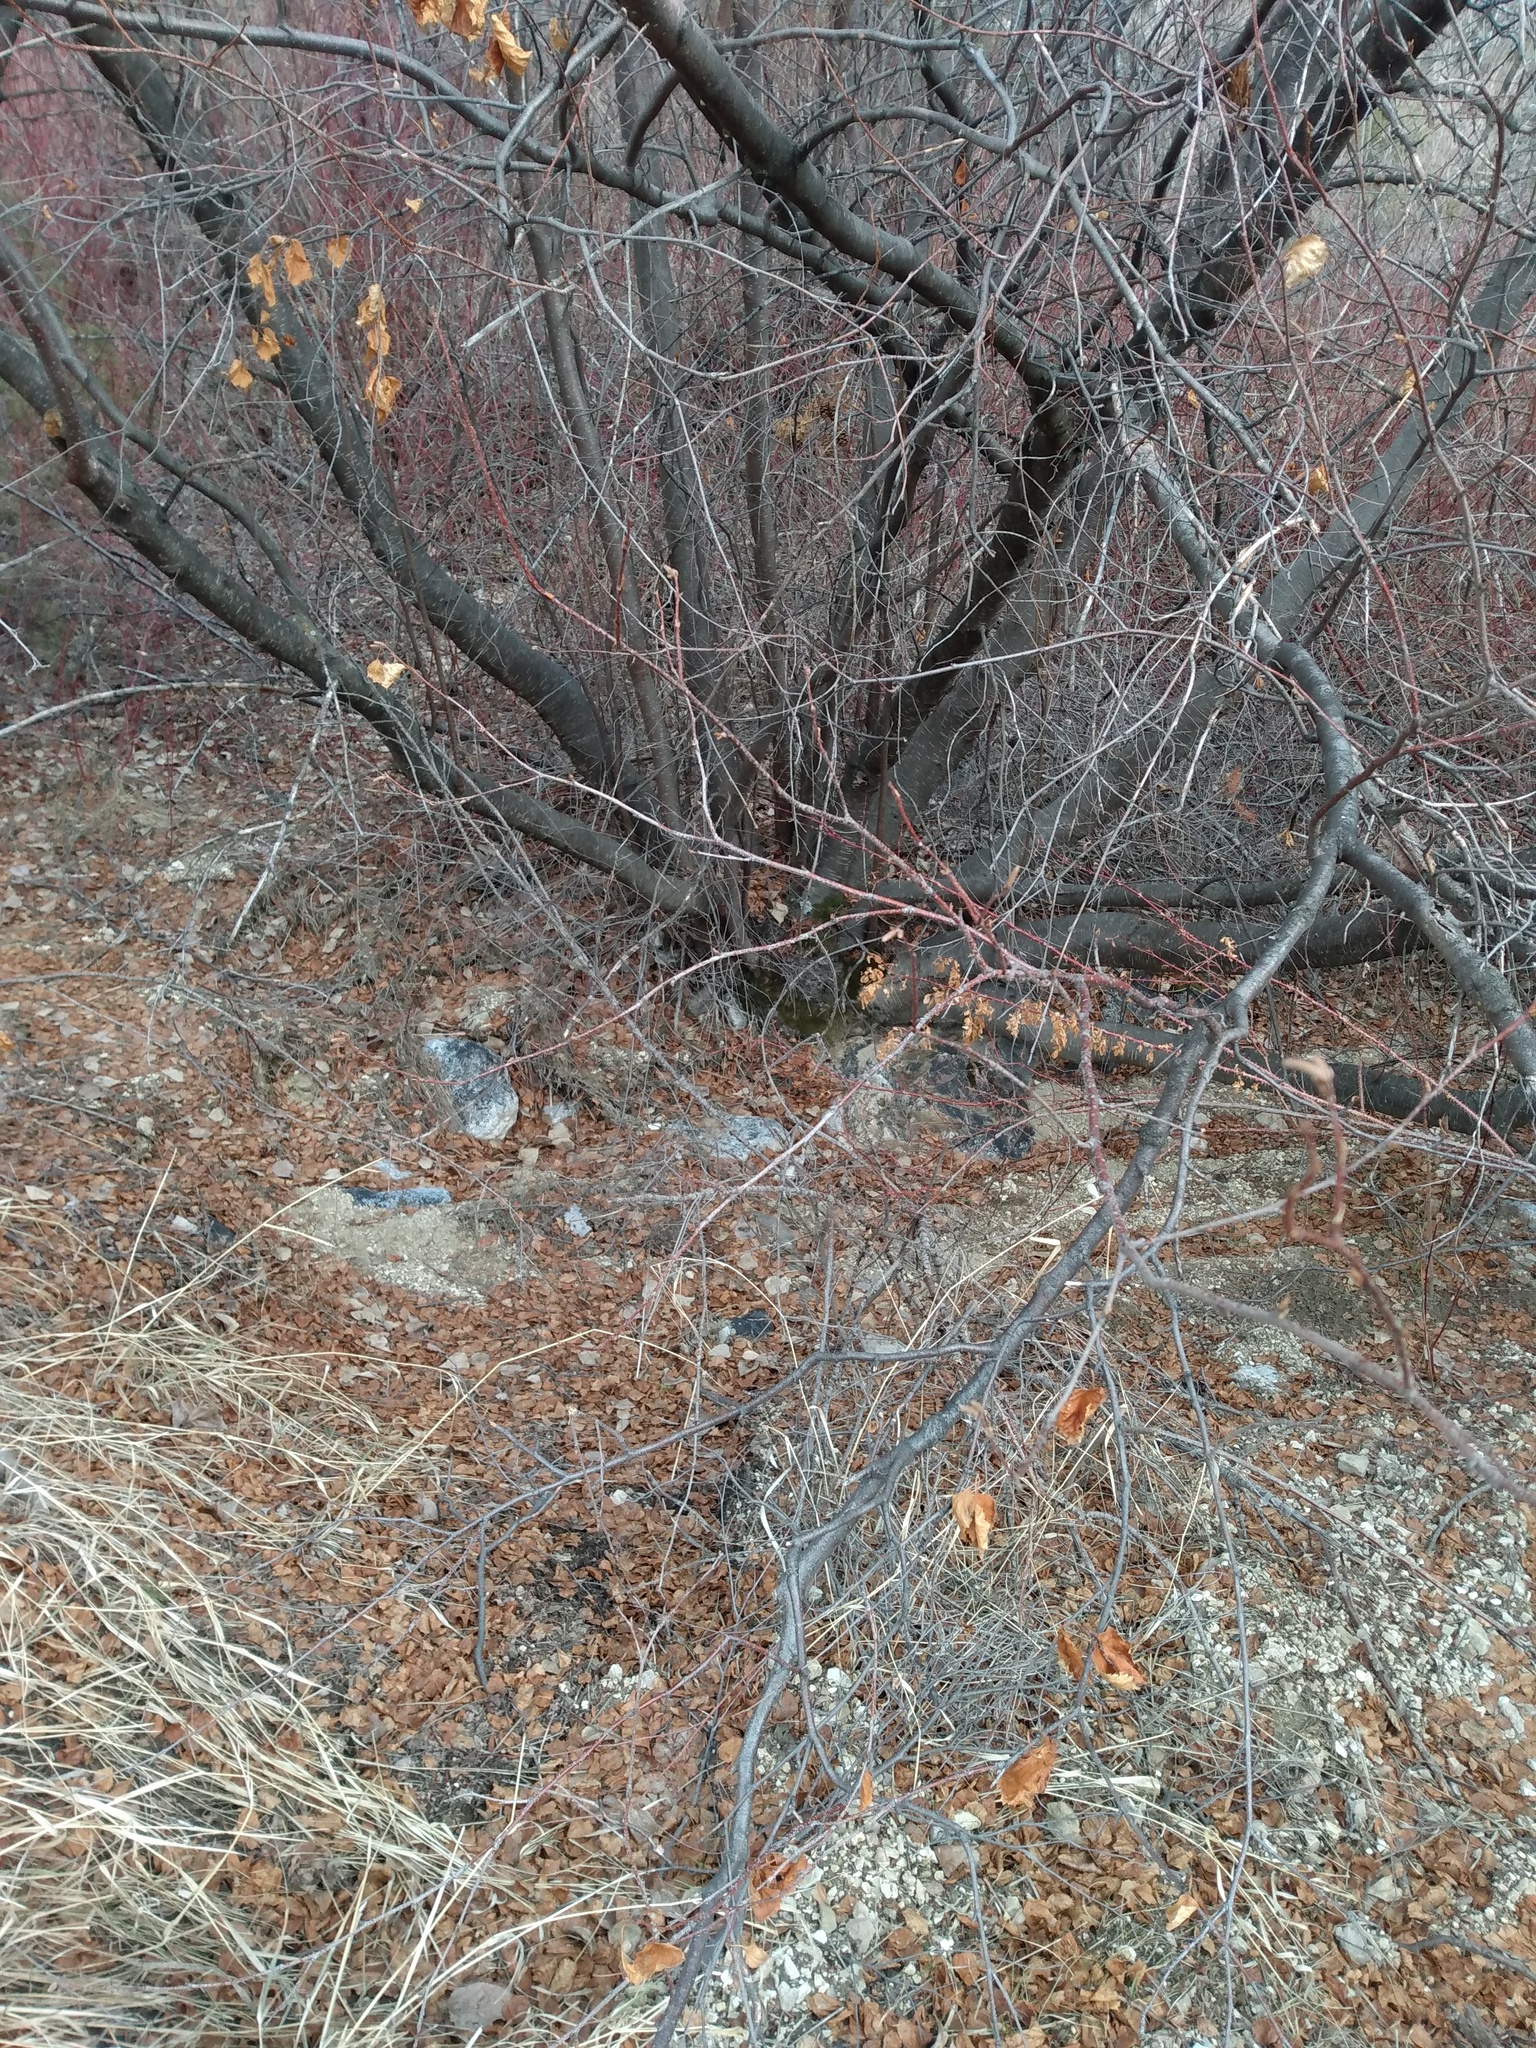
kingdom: Plantae
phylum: Tracheophyta
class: Magnoliopsida
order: Fagales
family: Betulaceae
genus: Betula
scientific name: Betula occidentalis
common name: River birch
